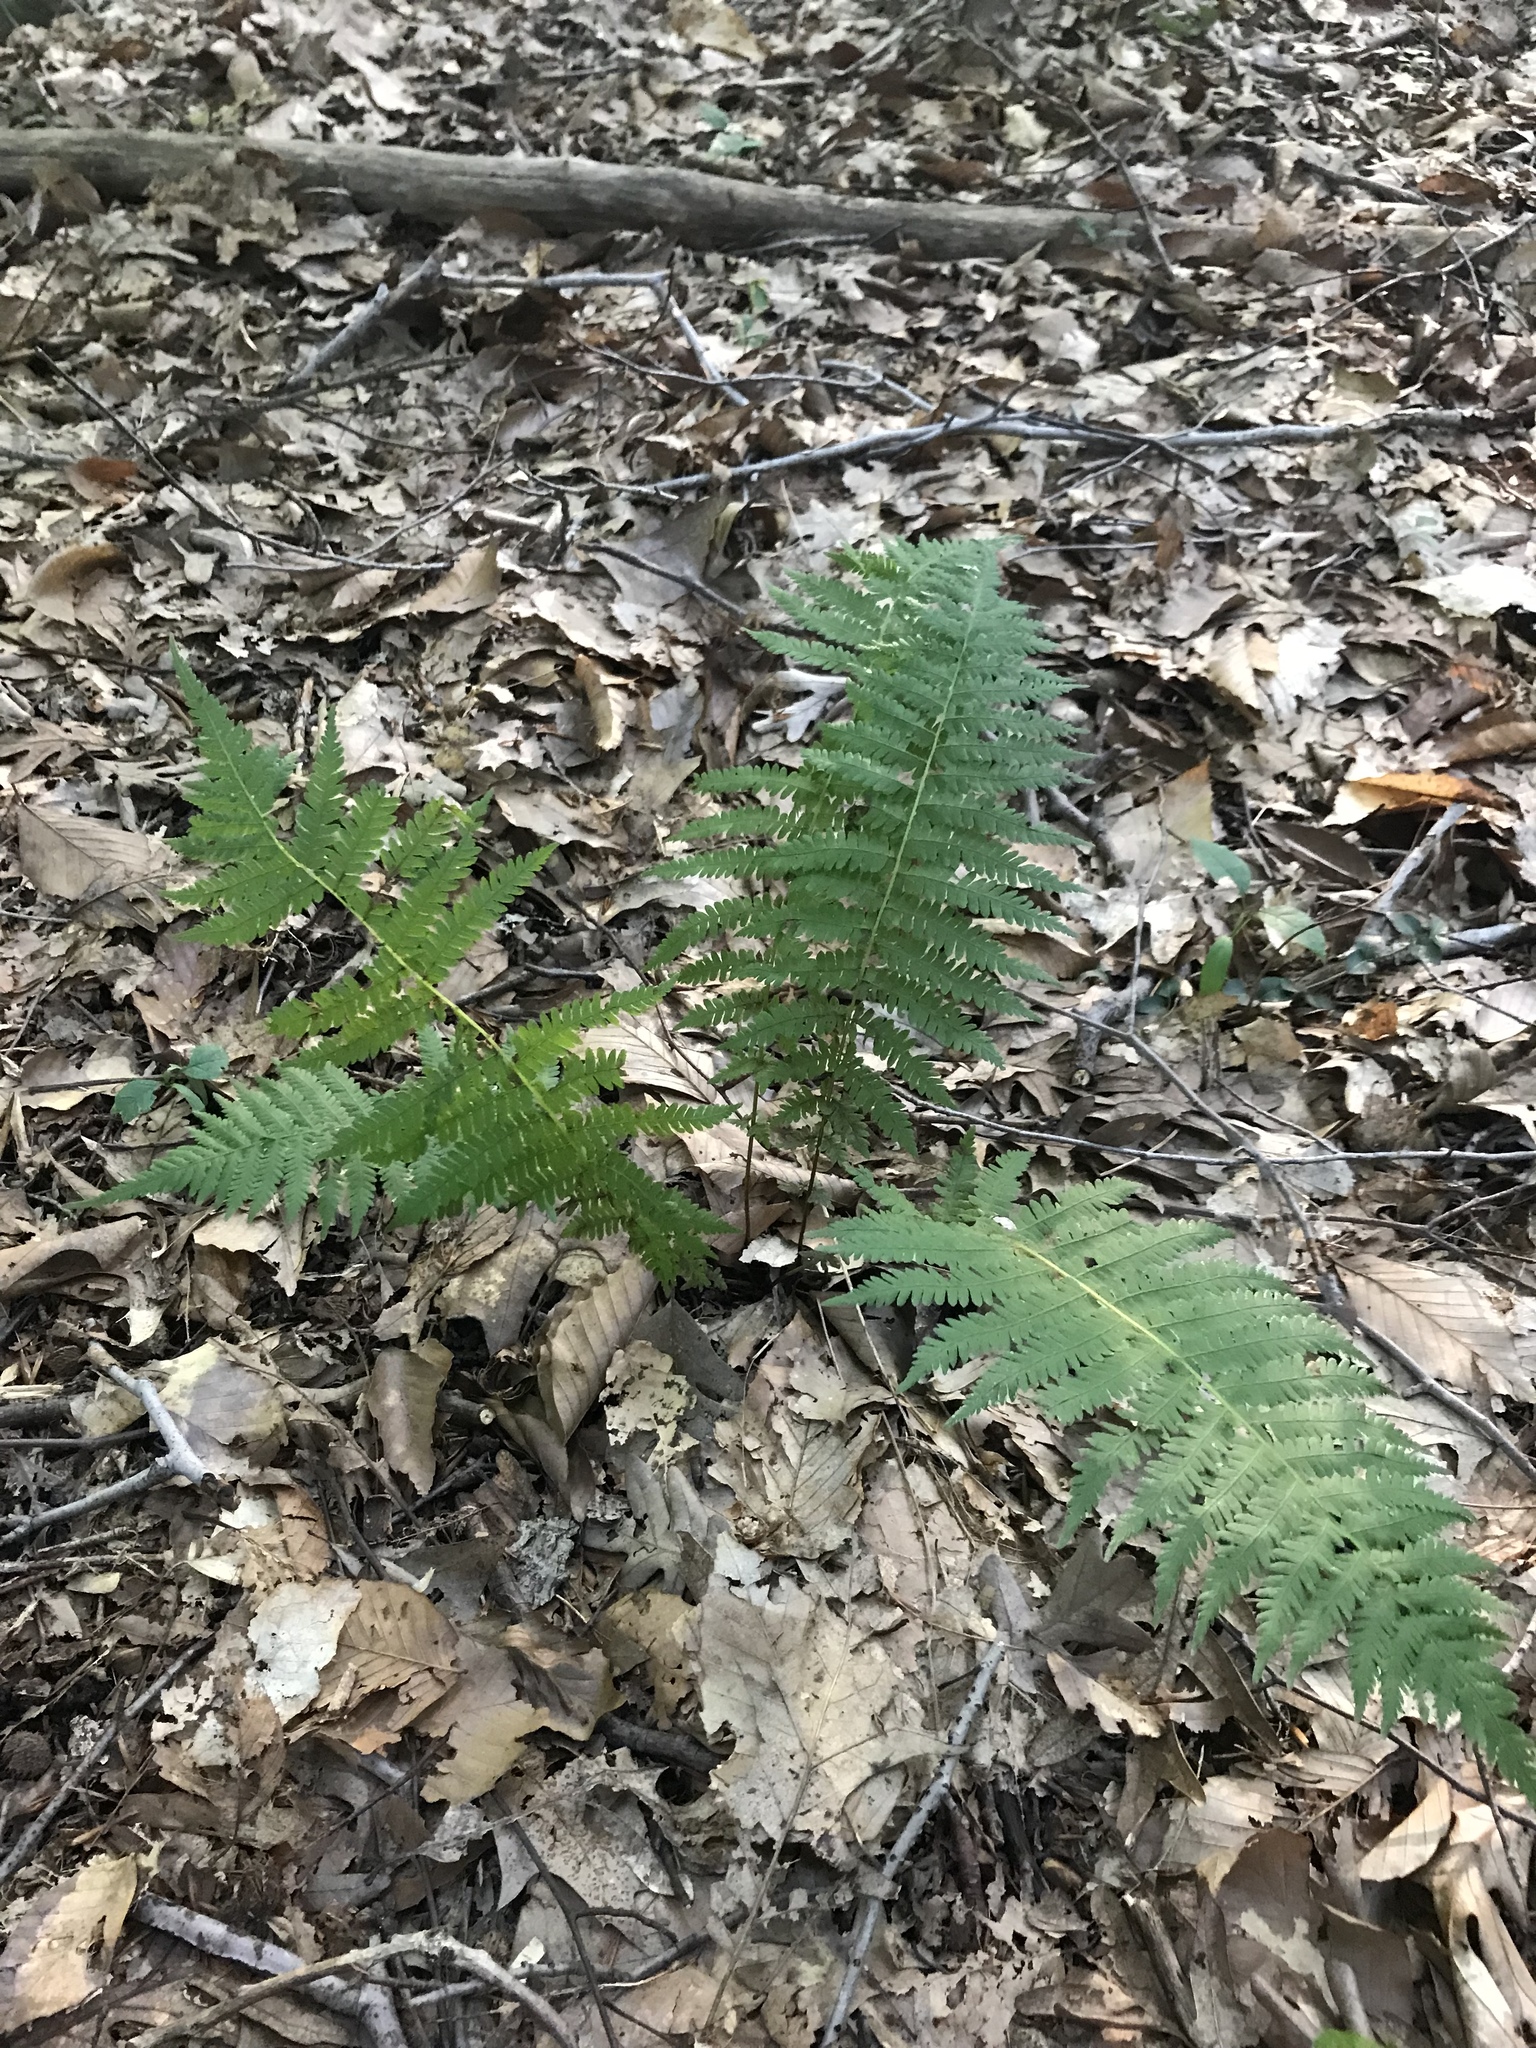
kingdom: Plantae
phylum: Tracheophyta
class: Polypodiopsida
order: Polypodiales
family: Thelypteridaceae
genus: Amauropelta
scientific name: Amauropelta noveboracensis
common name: New york fern
